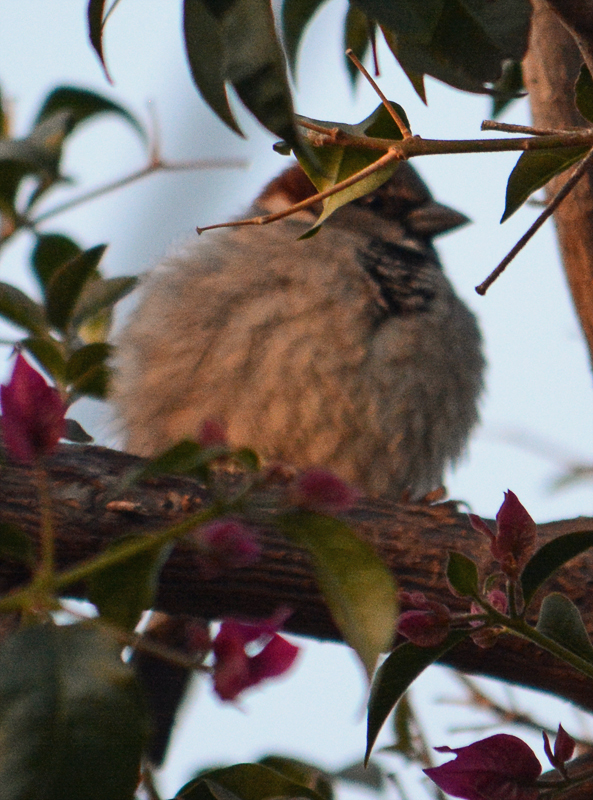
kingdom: Animalia
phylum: Chordata
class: Aves
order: Passeriformes
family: Passeridae
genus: Passer
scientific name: Passer domesticus
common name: House sparrow
